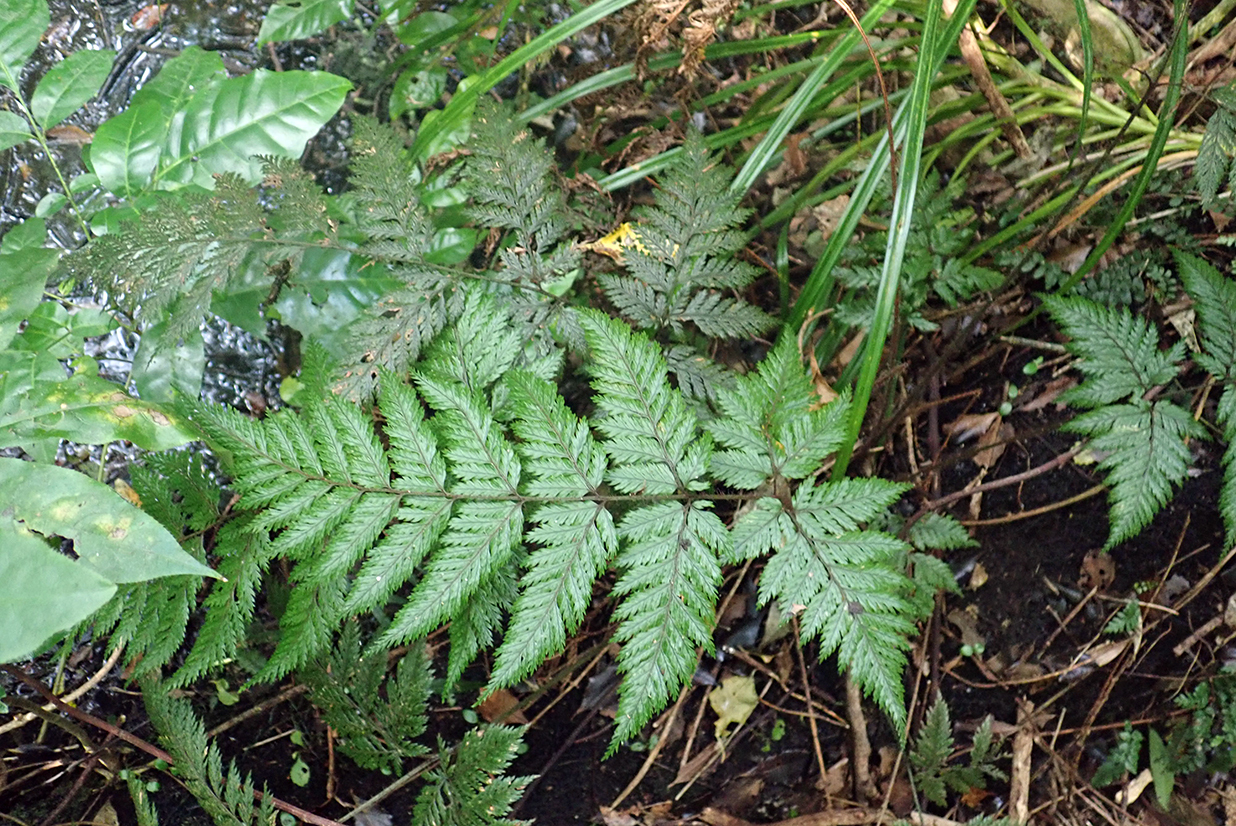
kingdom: Plantae
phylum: Tracheophyta
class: Polypodiopsida
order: Polypodiales
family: Dryopteridaceae
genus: Lastreopsis
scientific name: Lastreopsis hispida
